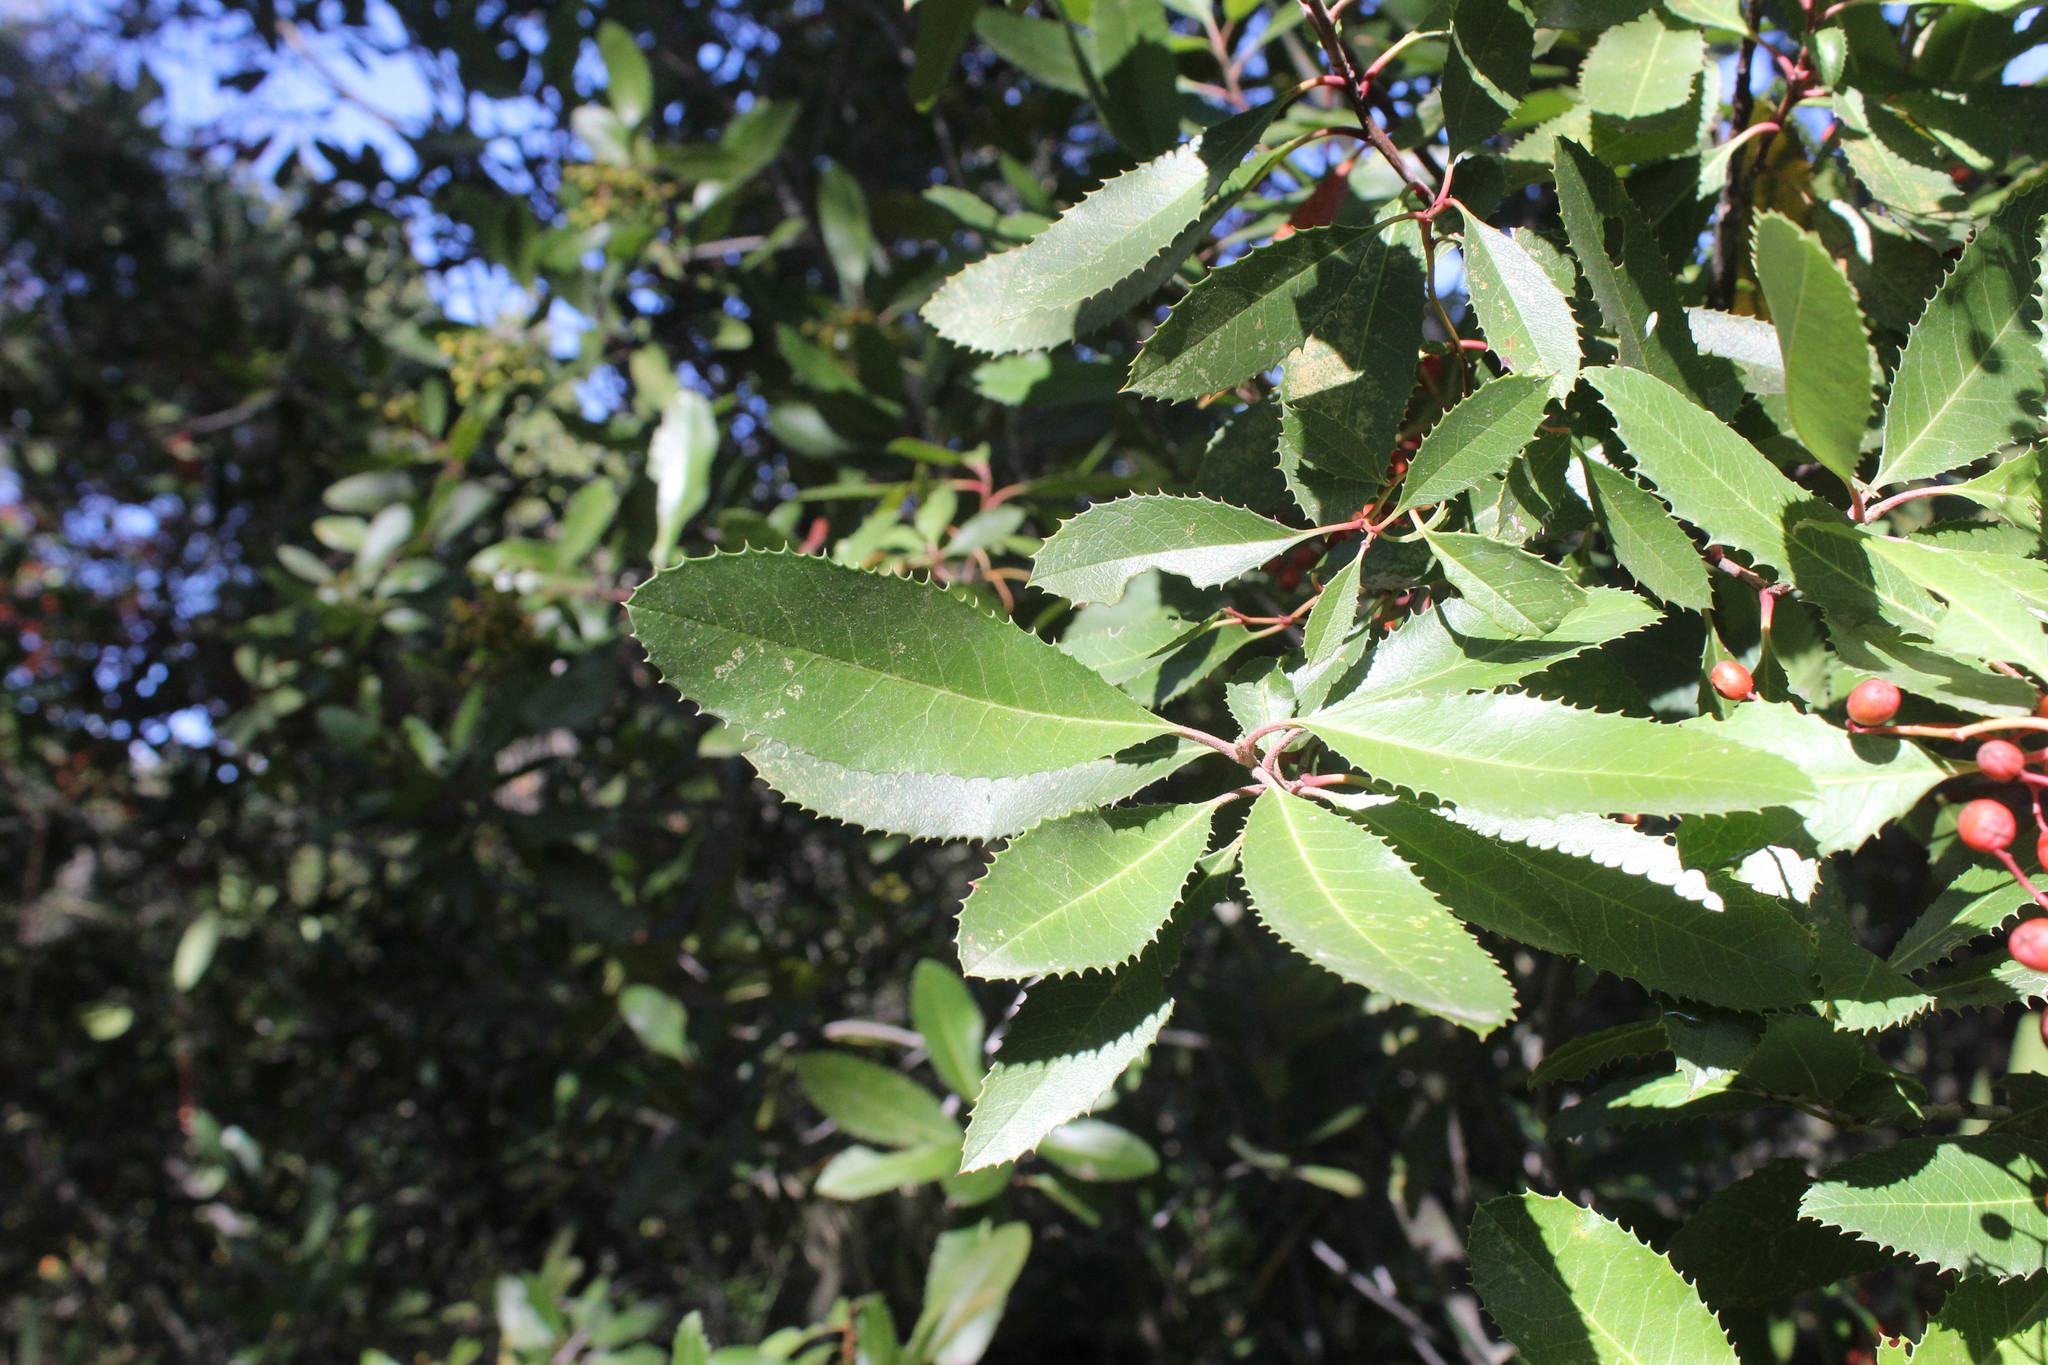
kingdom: Plantae
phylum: Tracheophyta
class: Magnoliopsida
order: Rosales
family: Rosaceae
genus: Heteromeles
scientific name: Heteromeles arbutifolia
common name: California-holly
